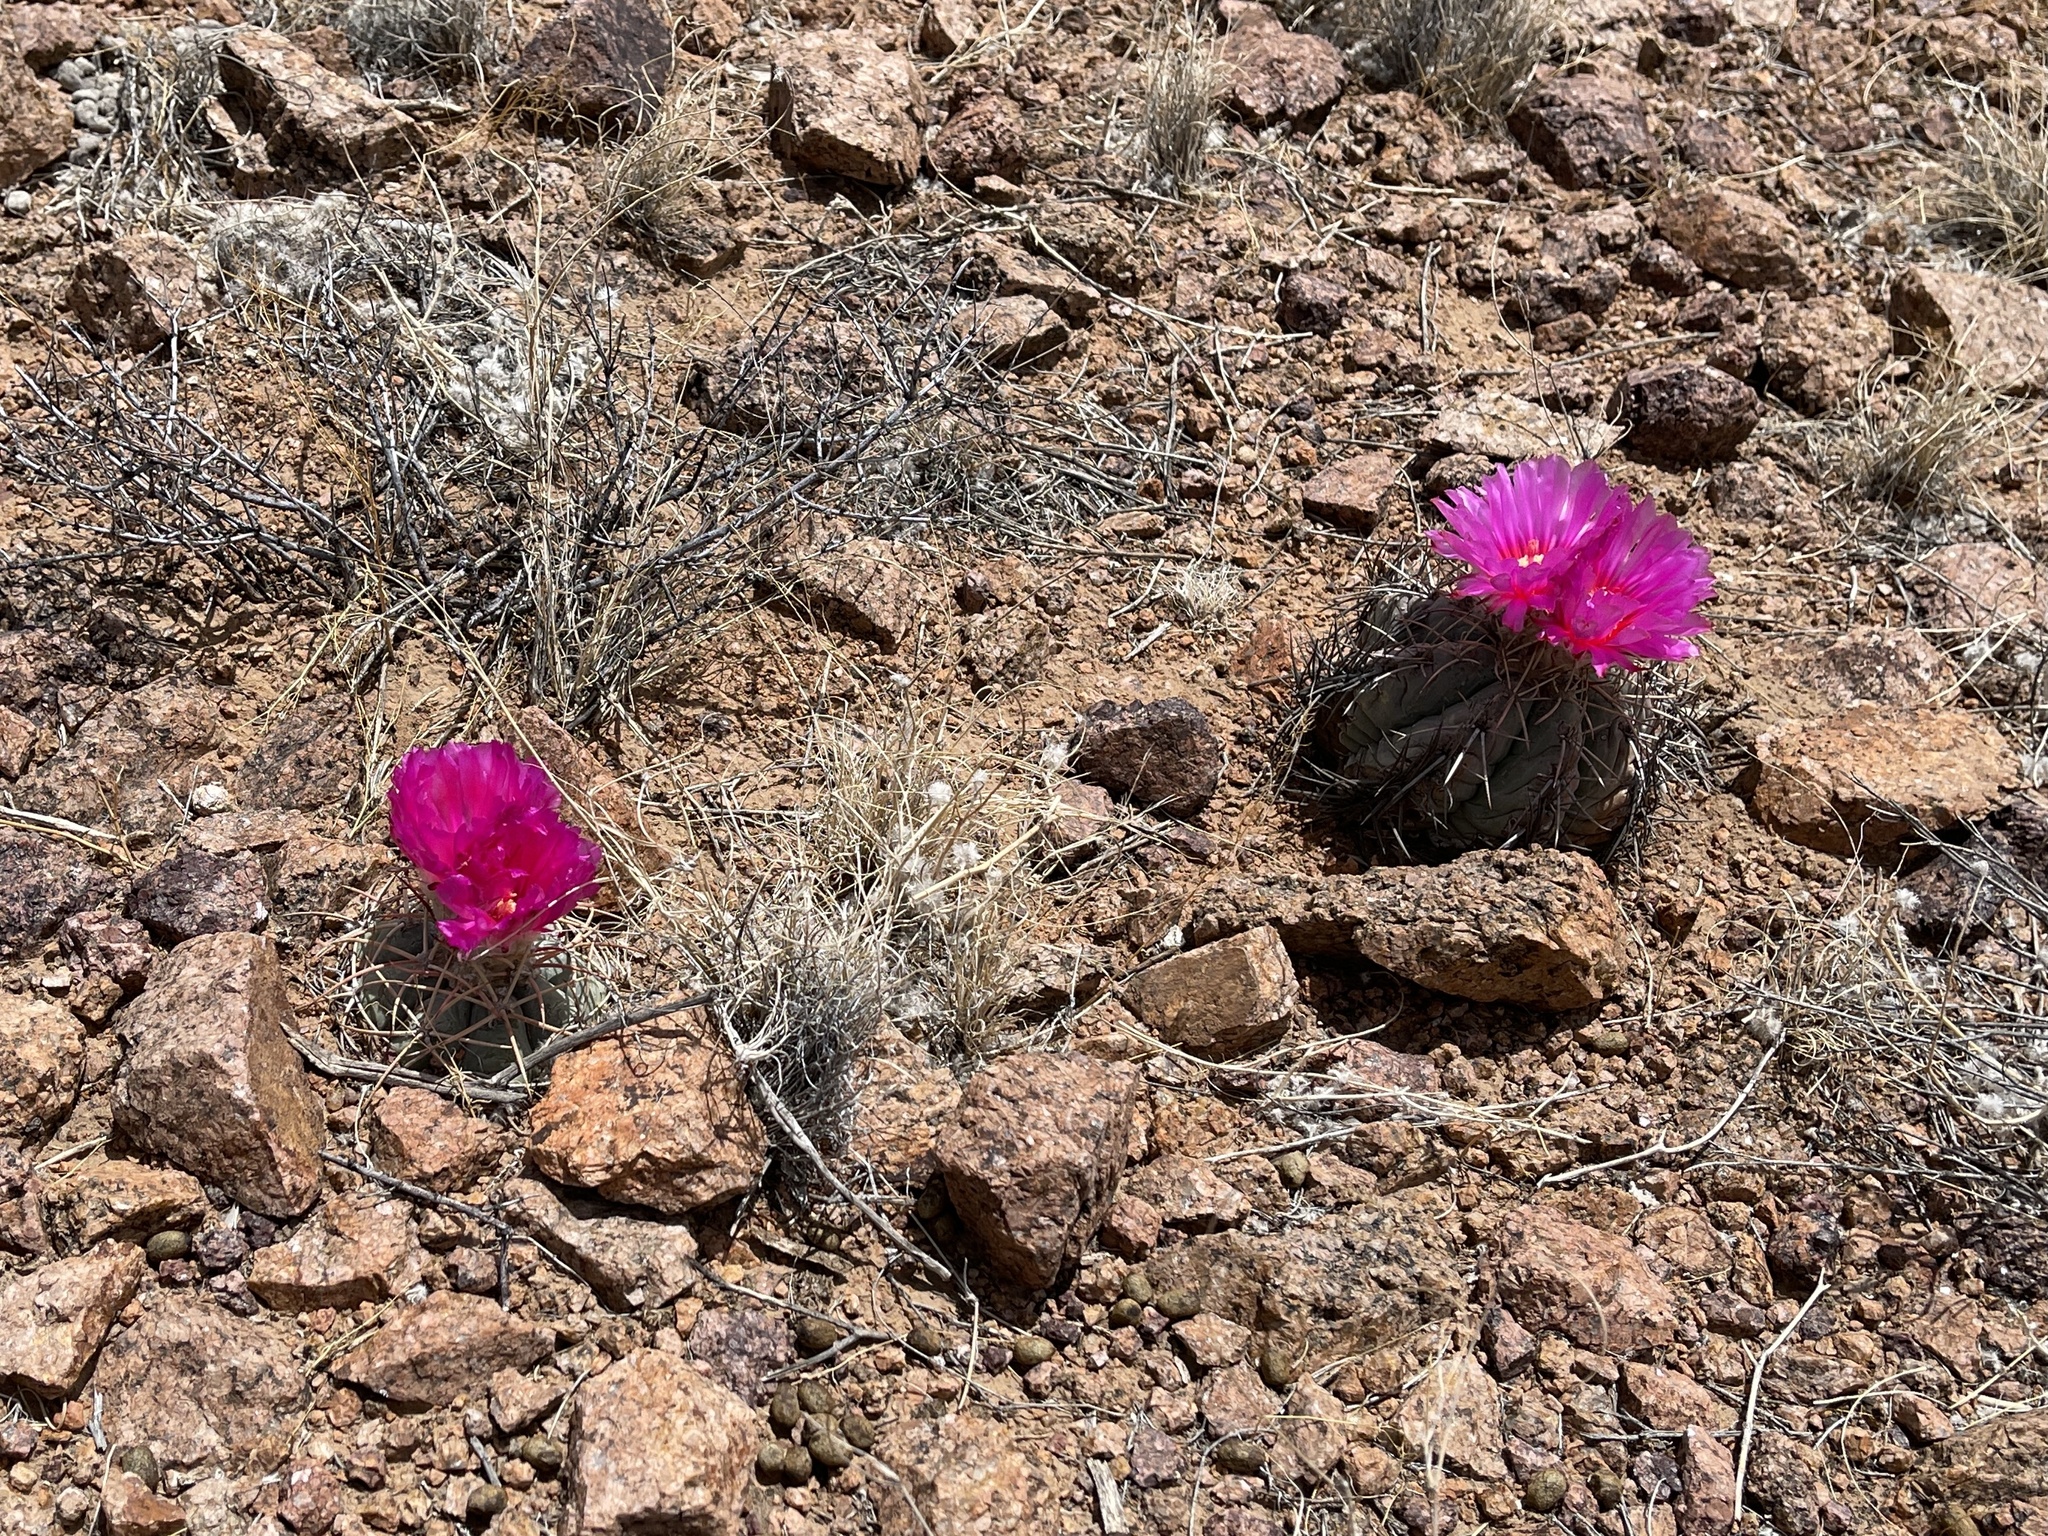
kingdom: Plantae
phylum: Tracheophyta
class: Magnoliopsida
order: Caryophyllales
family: Cactaceae
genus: Echinocactus
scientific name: Echinocactus horizonthalonius
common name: Devilshead
